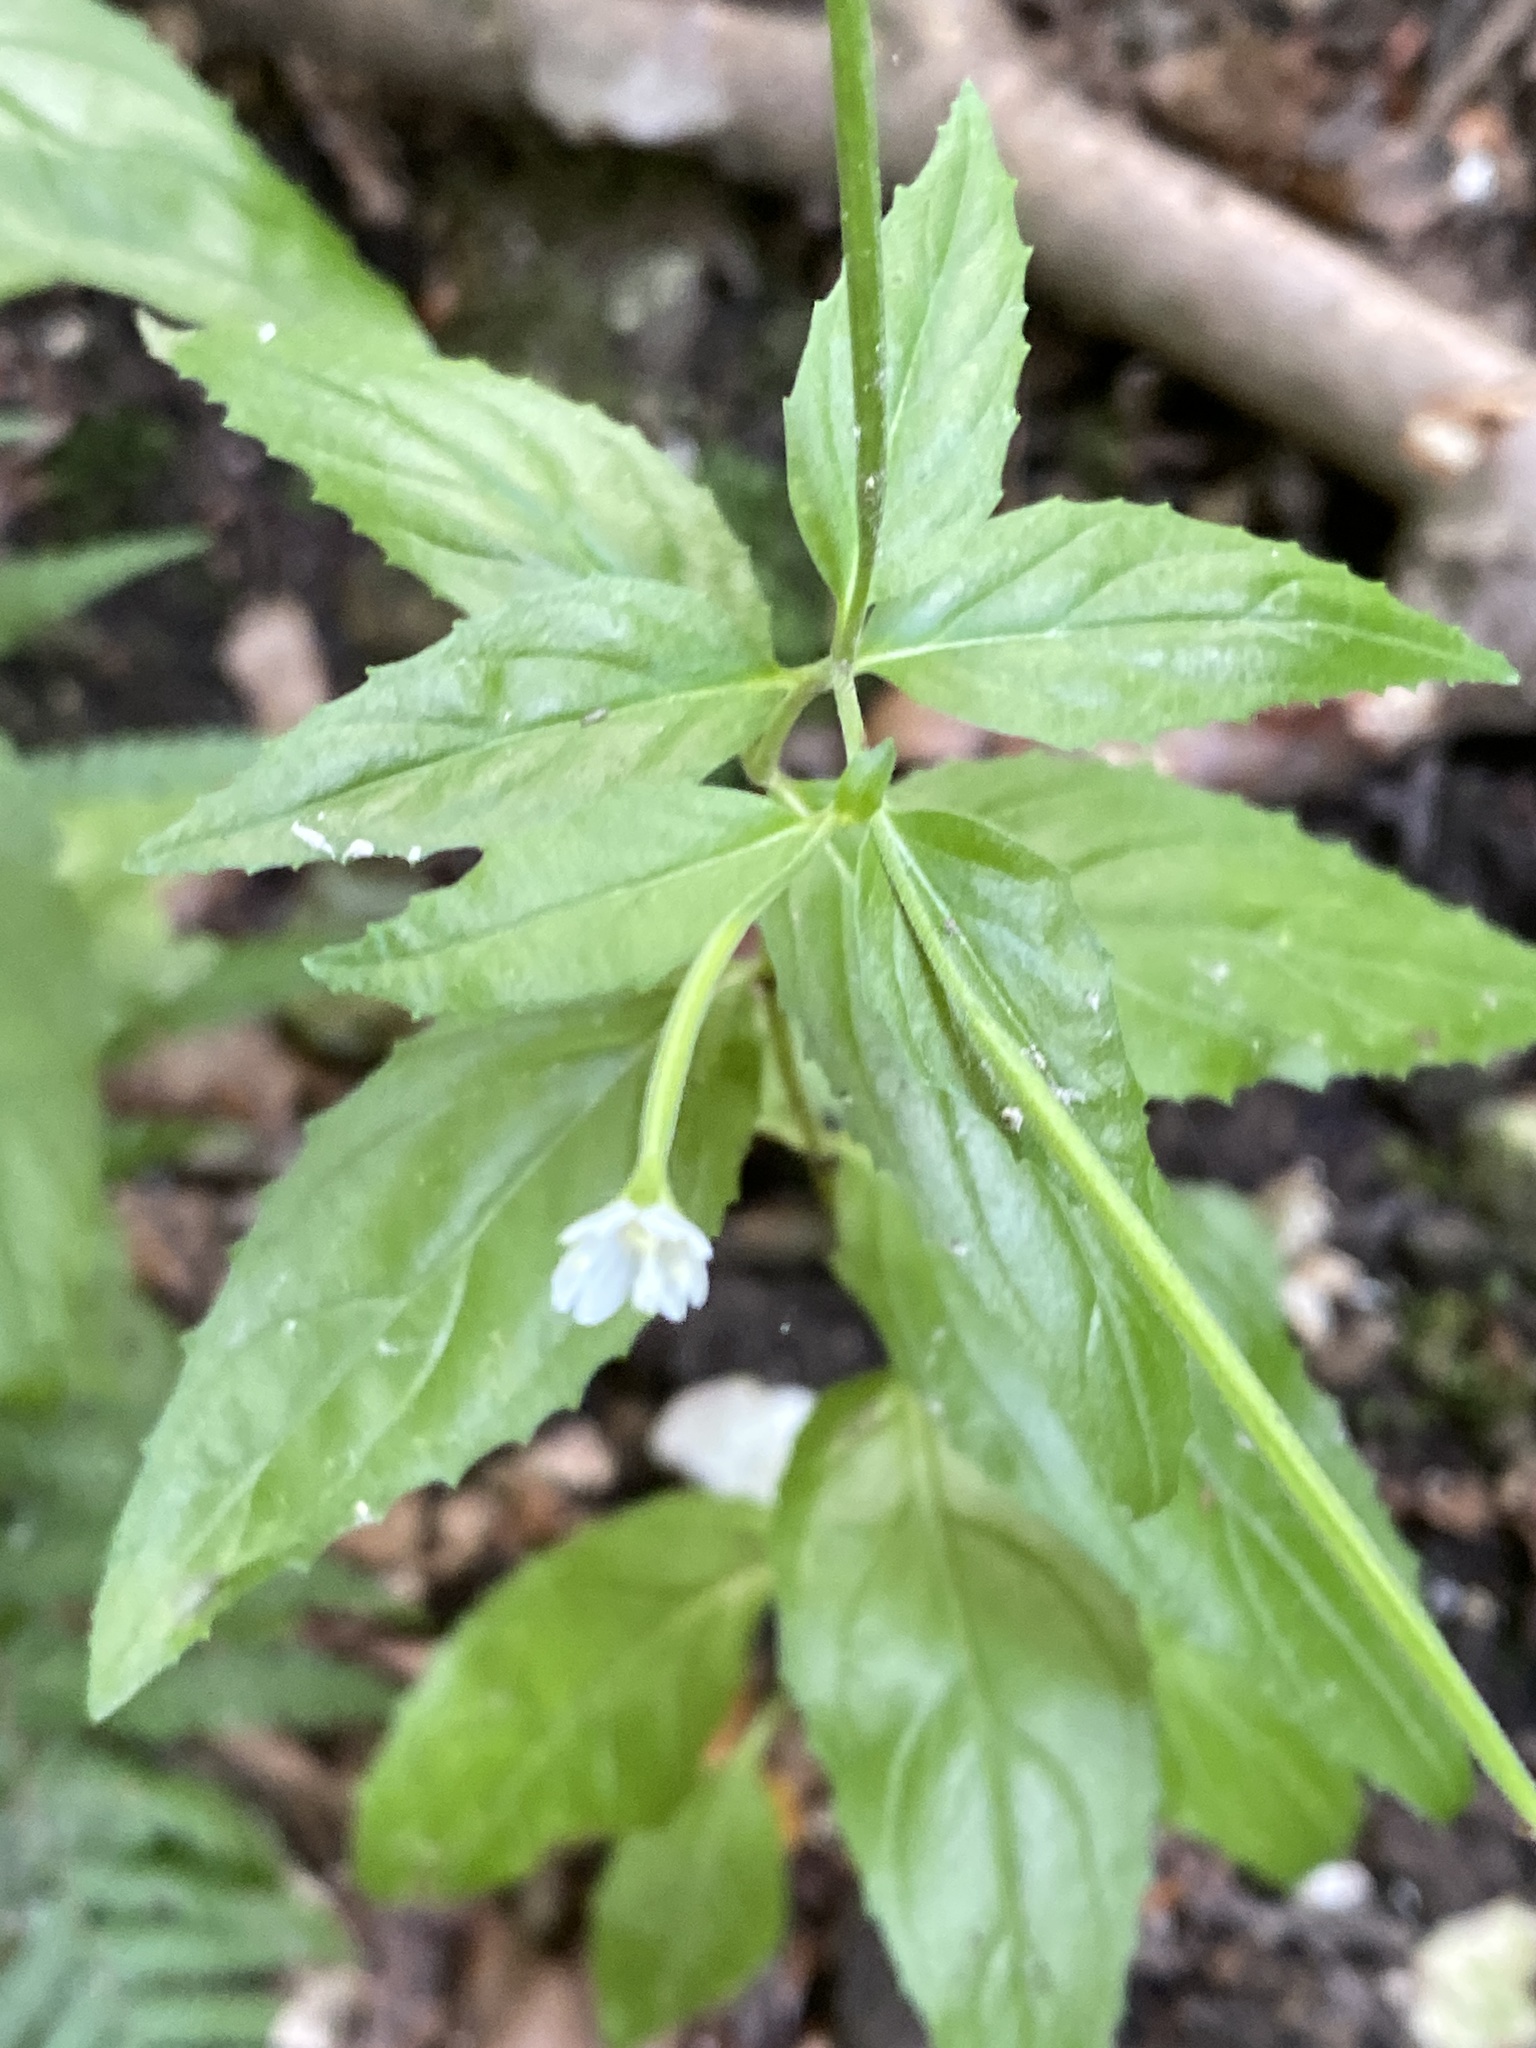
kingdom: Plantae
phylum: Tracheophyta
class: Magnoliopsida
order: Myrtales
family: Onagraceae
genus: Epilobium
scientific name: Epilobium montanum
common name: Broad-leaved willowherb
